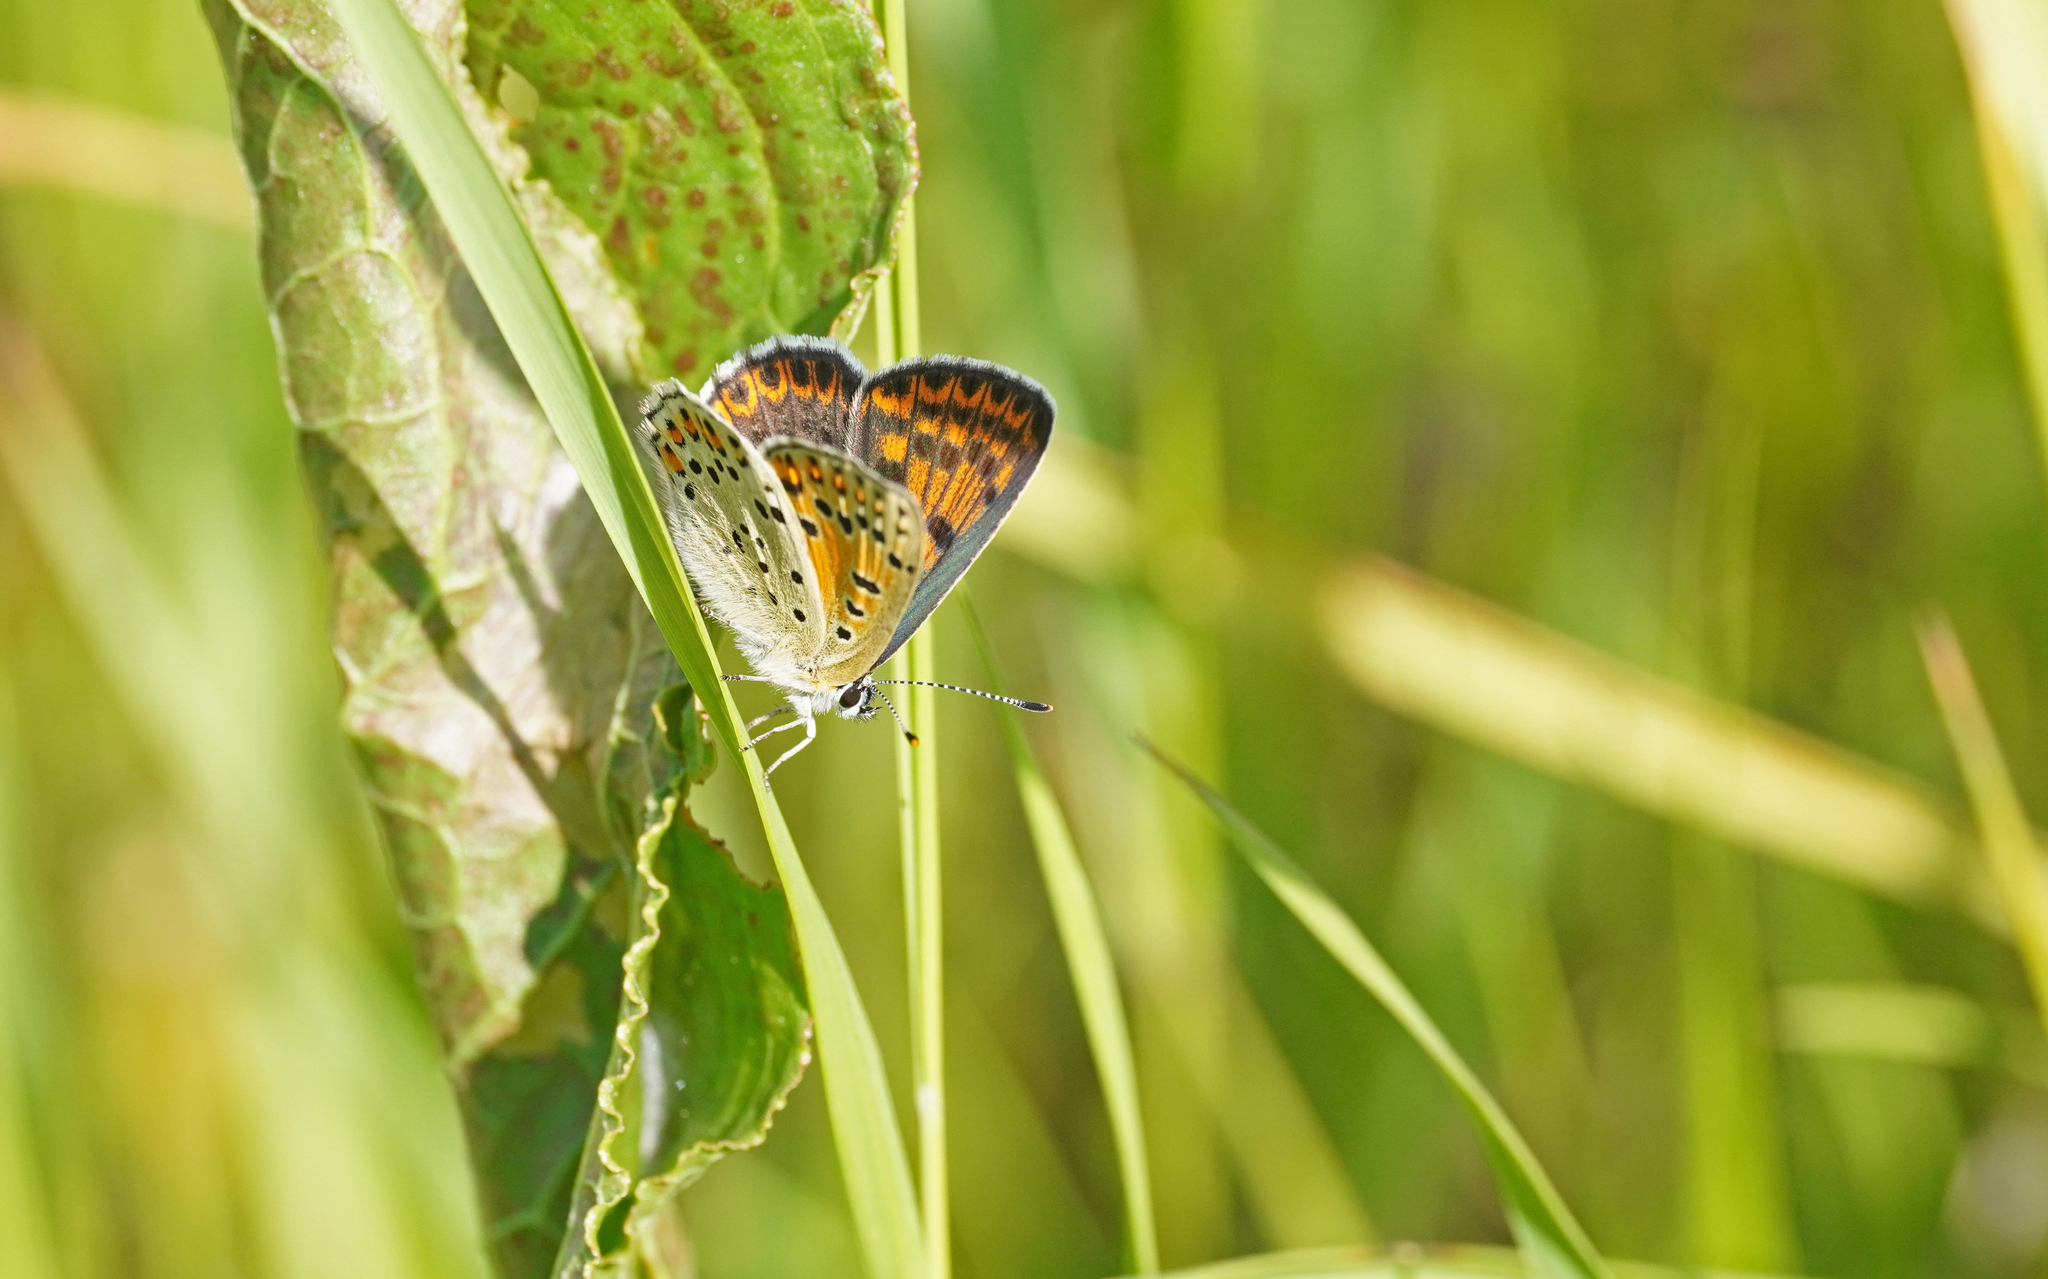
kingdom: Animalia
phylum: Arthropoda
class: Insecta
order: Lepidoptera
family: Lycaenidae
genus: Loweia
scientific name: Loweia tityrus
